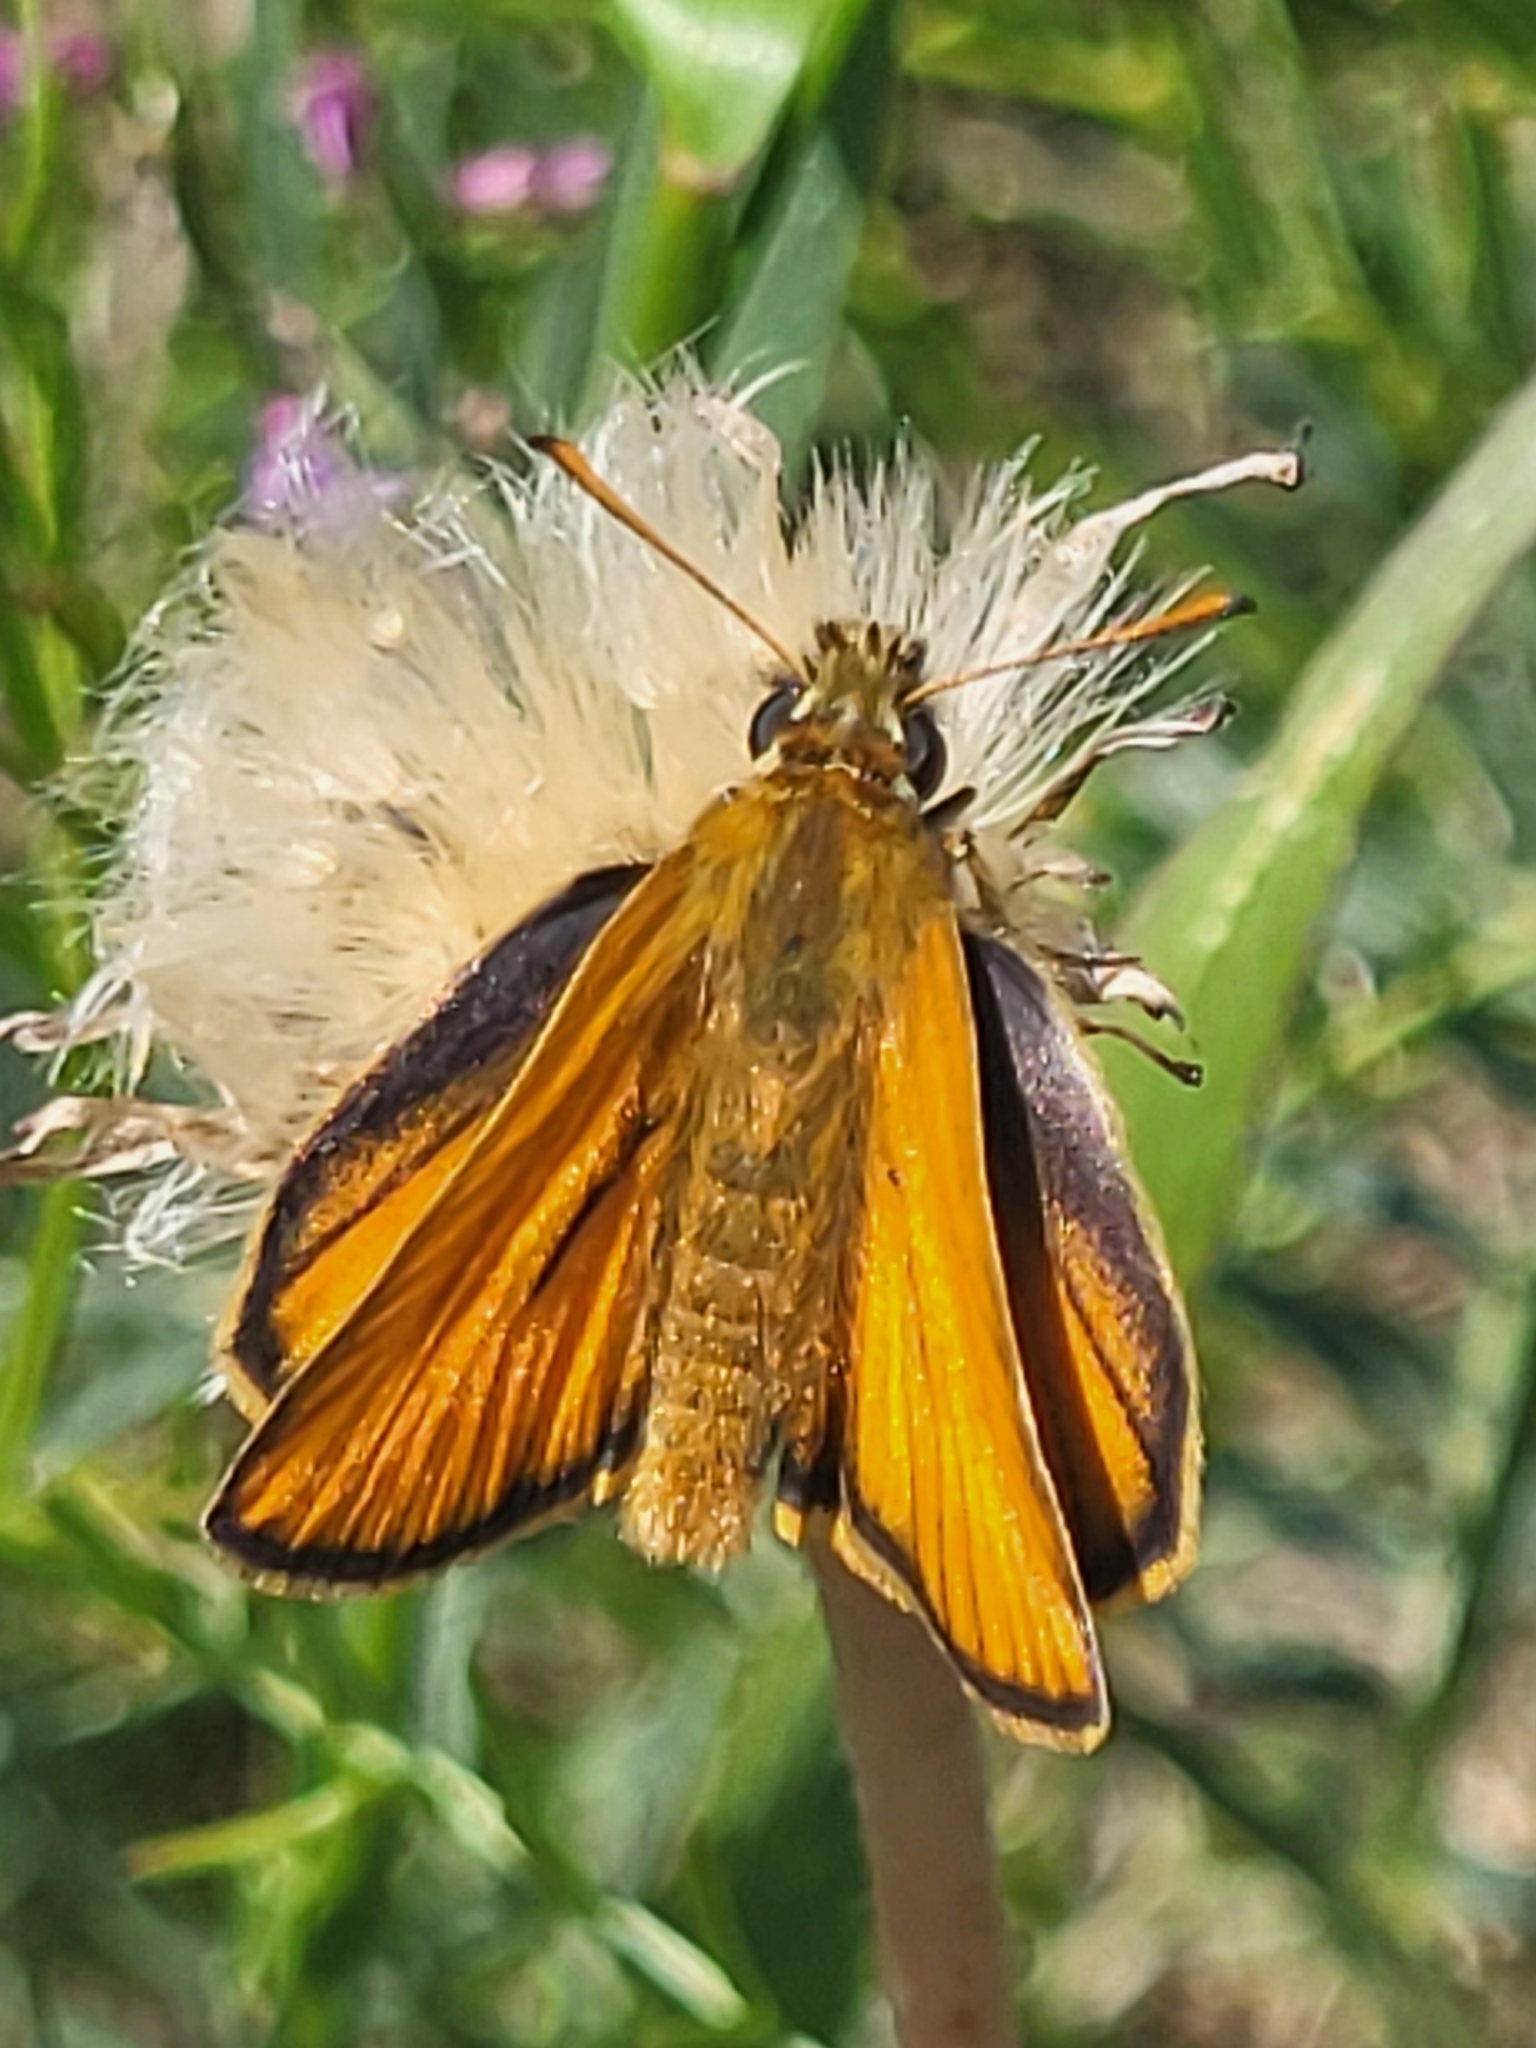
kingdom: Animalia
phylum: Arthropoda
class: Insecta
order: Lepidoptera
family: Hesperiidae
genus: Thymelicus
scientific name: Thymelicus sylvestris
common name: Small skipper
